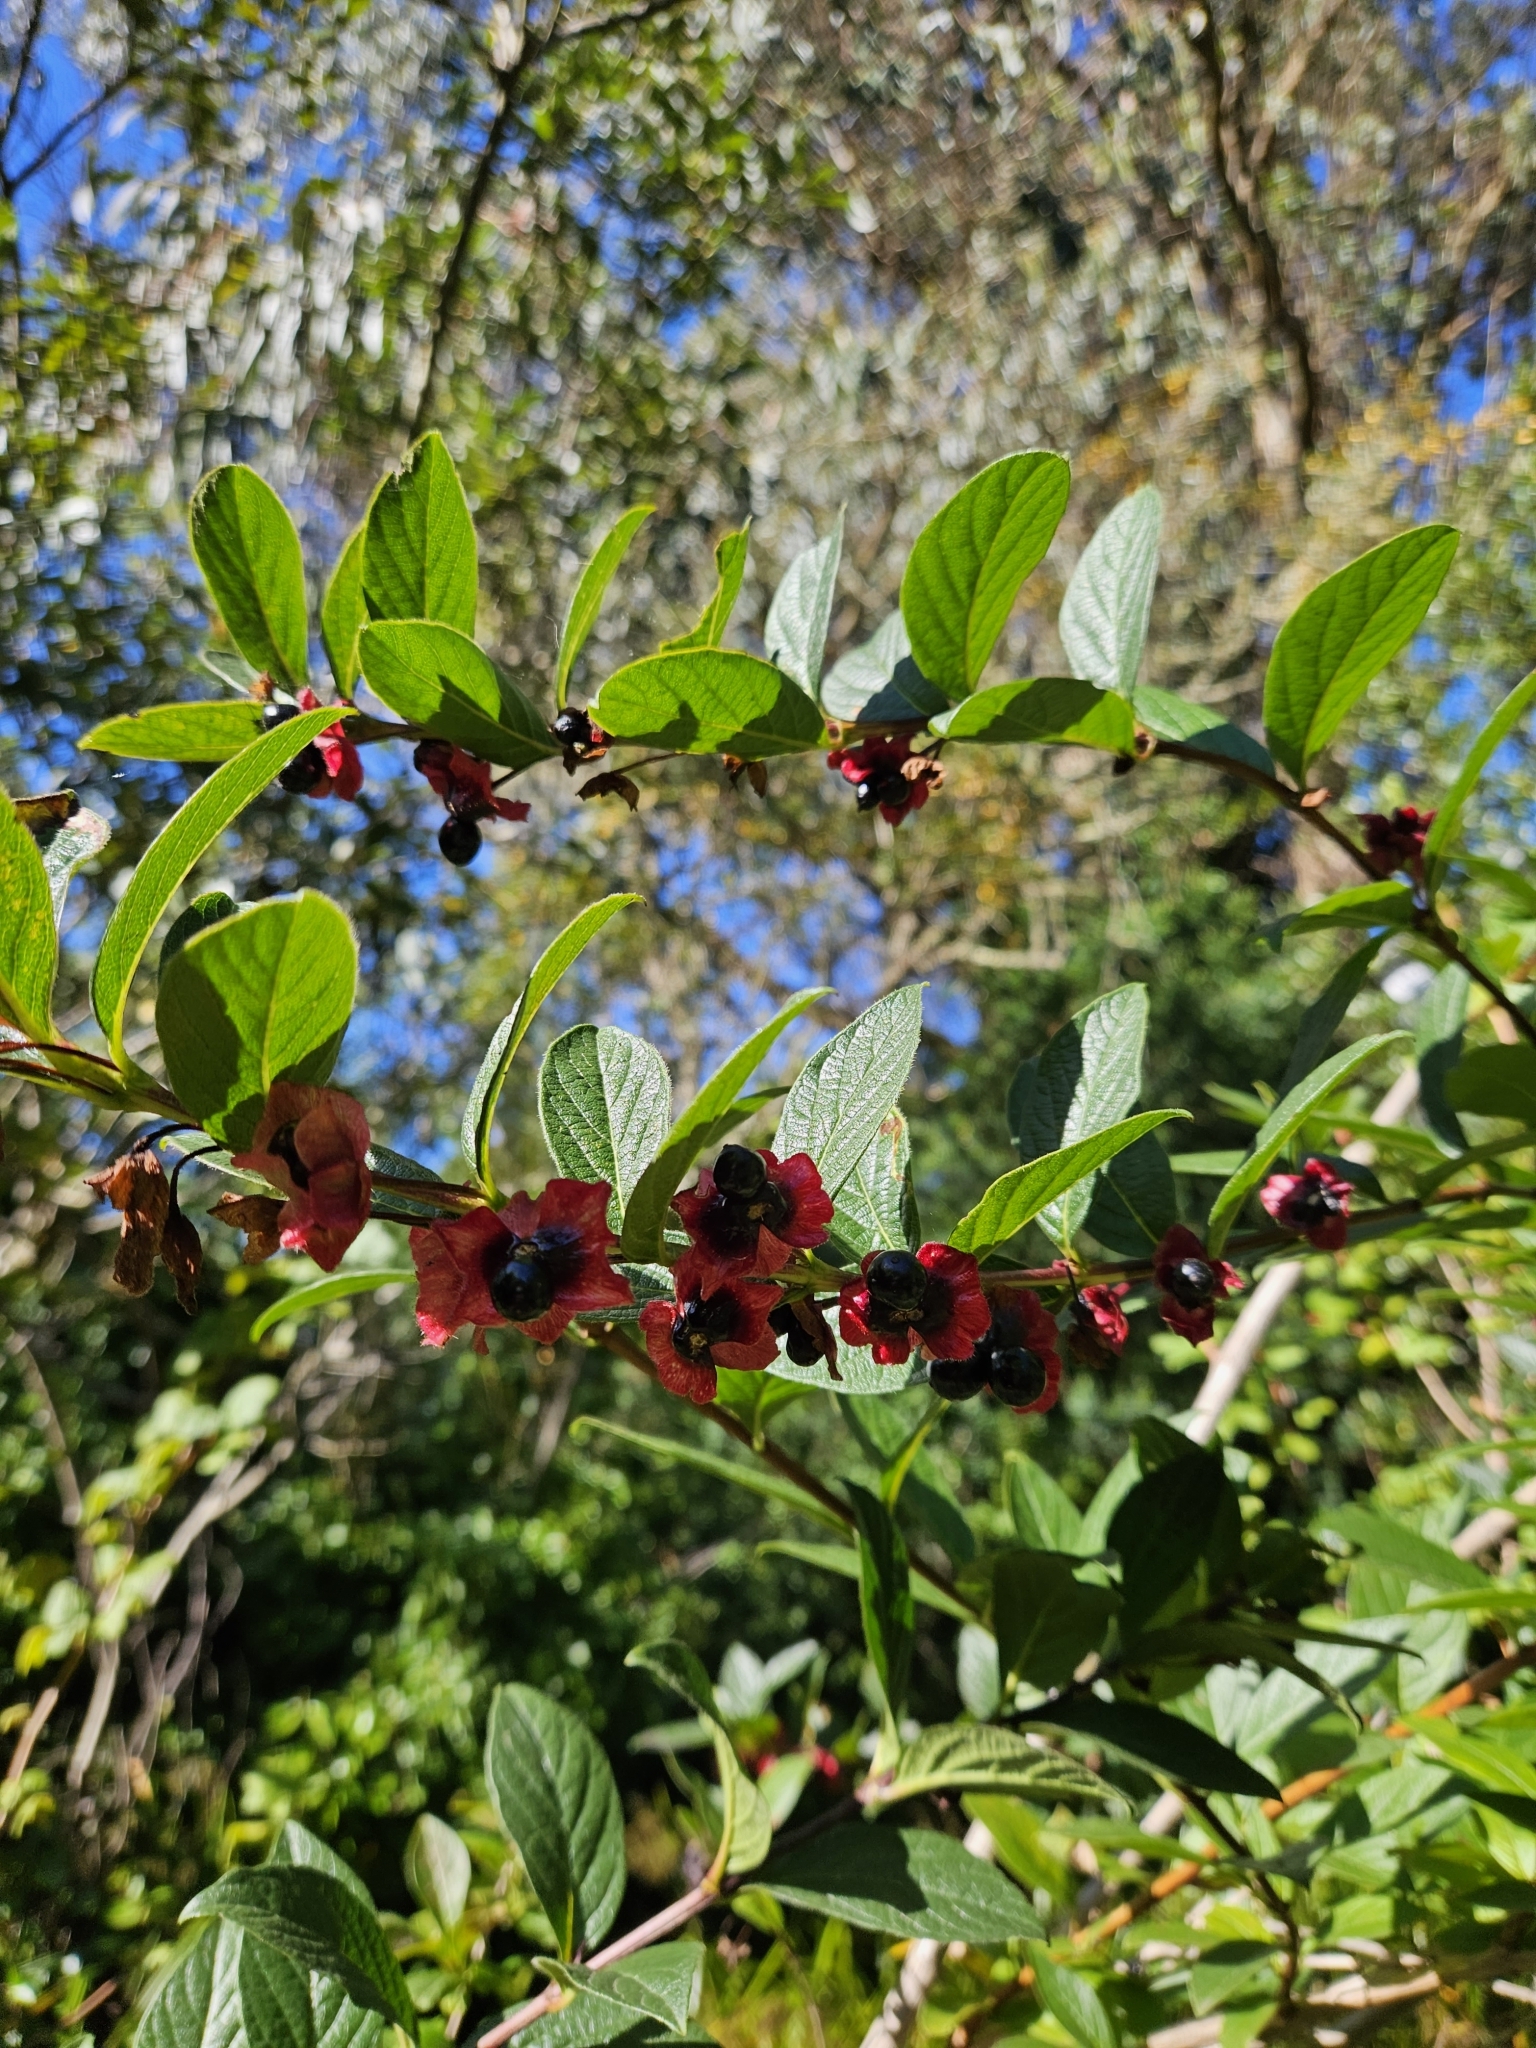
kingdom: Plantae
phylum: Tracheophyta
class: Magnoliopsida
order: Dipsacales
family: Caprifoliaceae
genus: Lonicera
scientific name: Lonicera involucrata
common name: Californian honeysuckle
